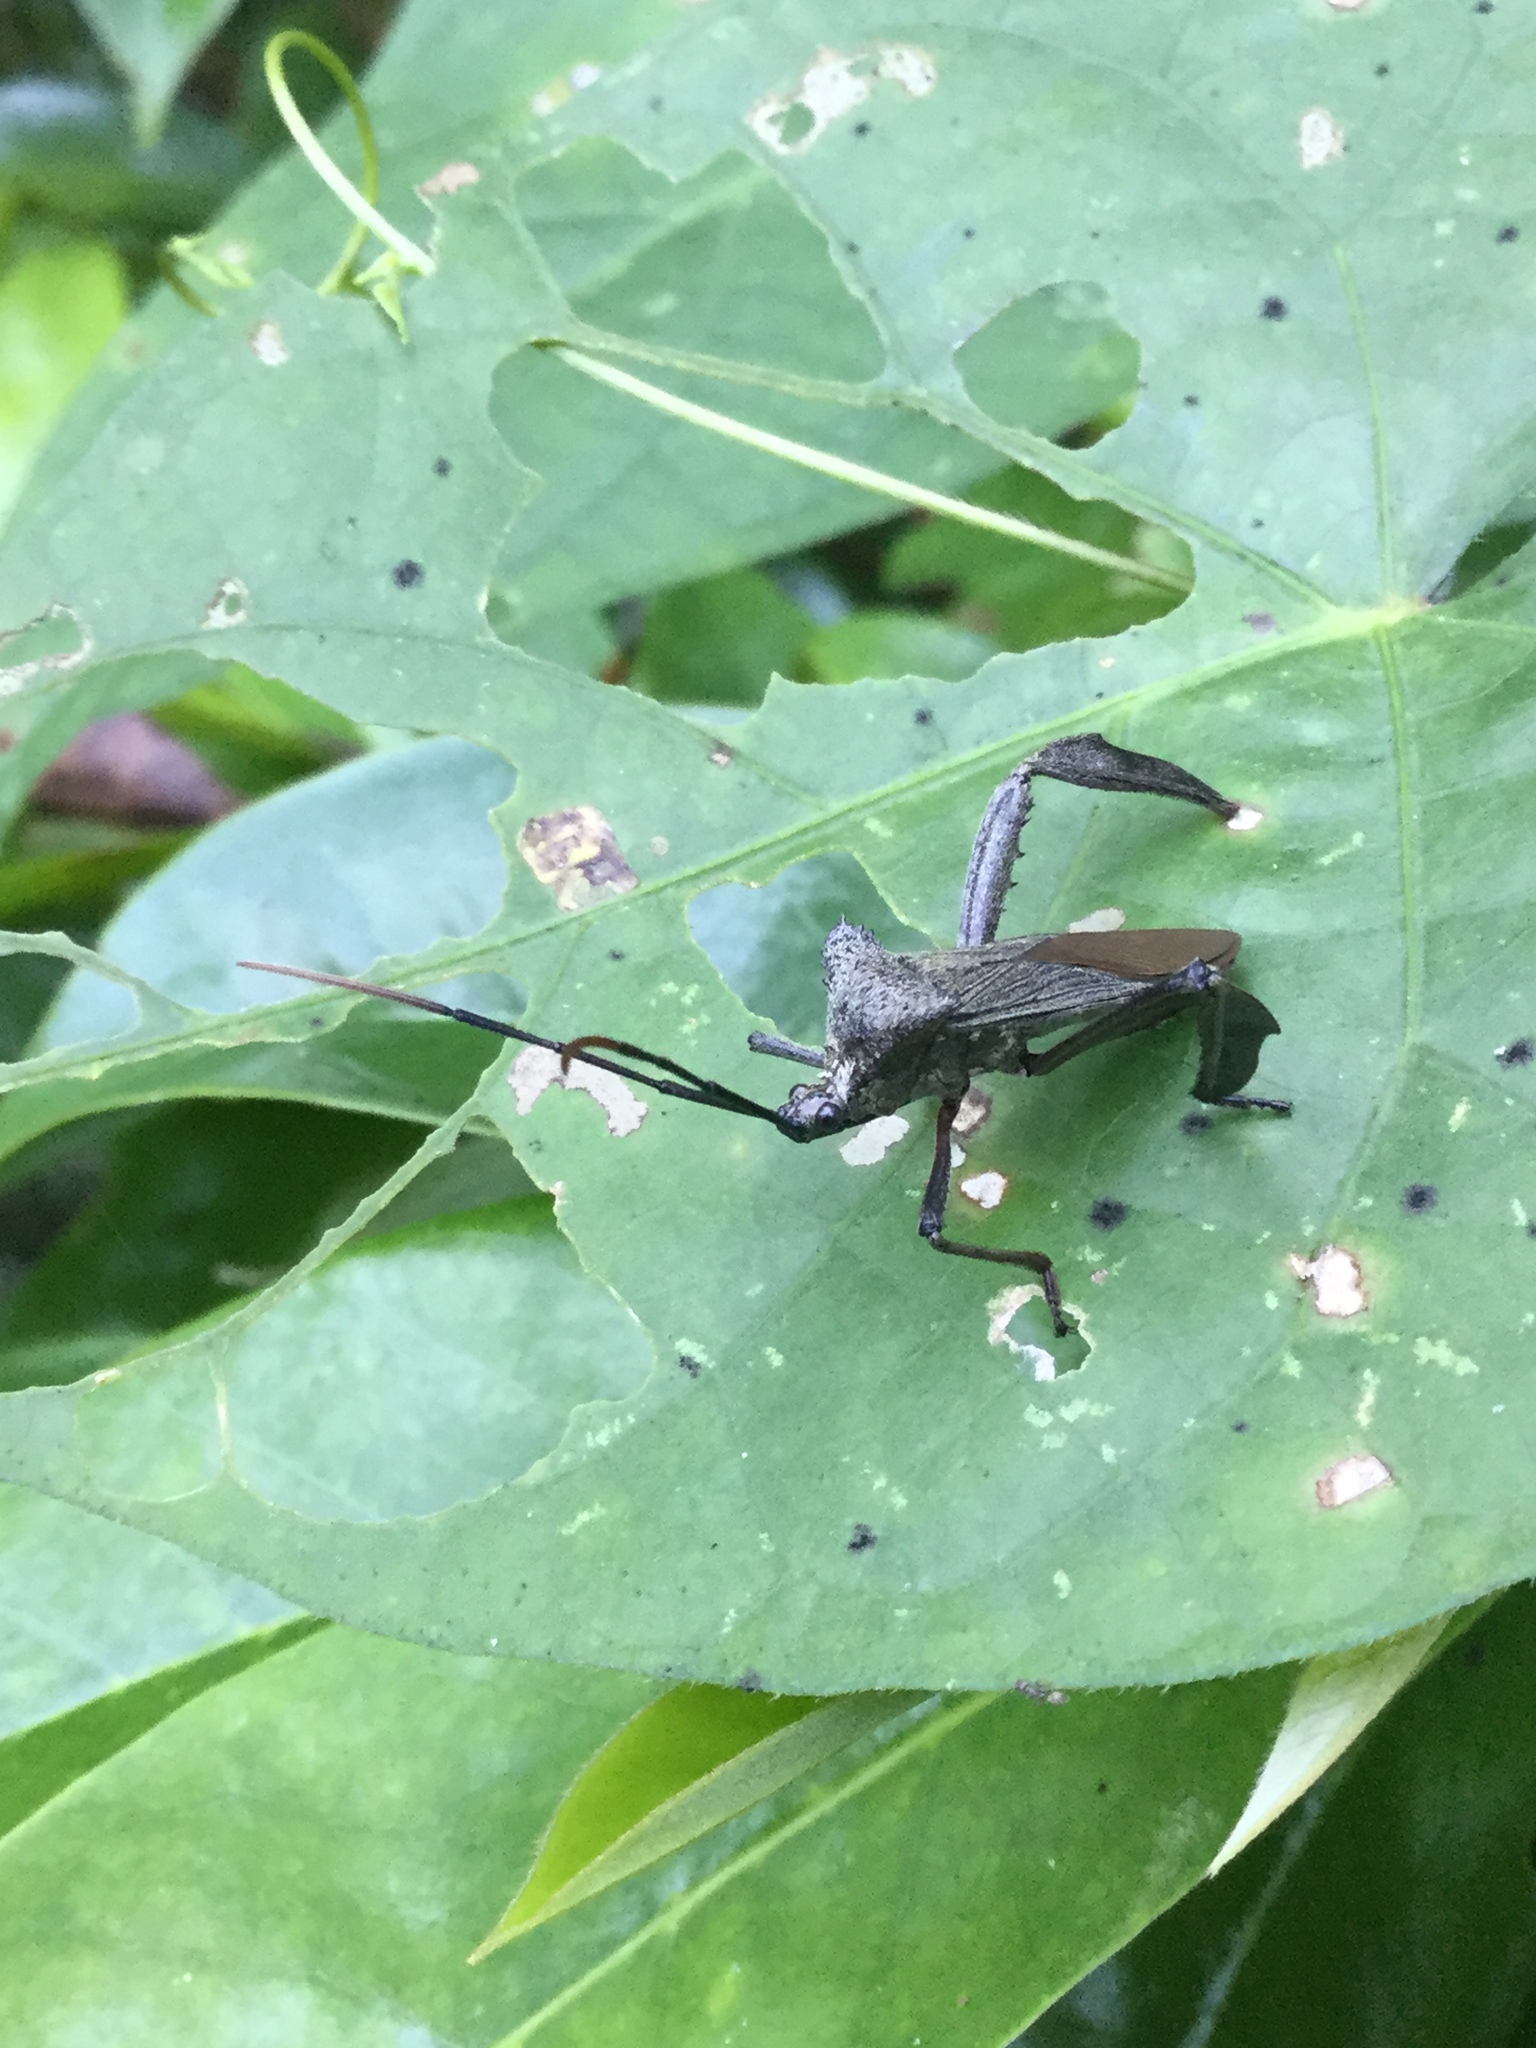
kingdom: Animalia
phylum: Arthropoda
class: Insecta
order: Hemiptera
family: Coreidae
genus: Acanthocephala
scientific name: Acanthocephala heissi
